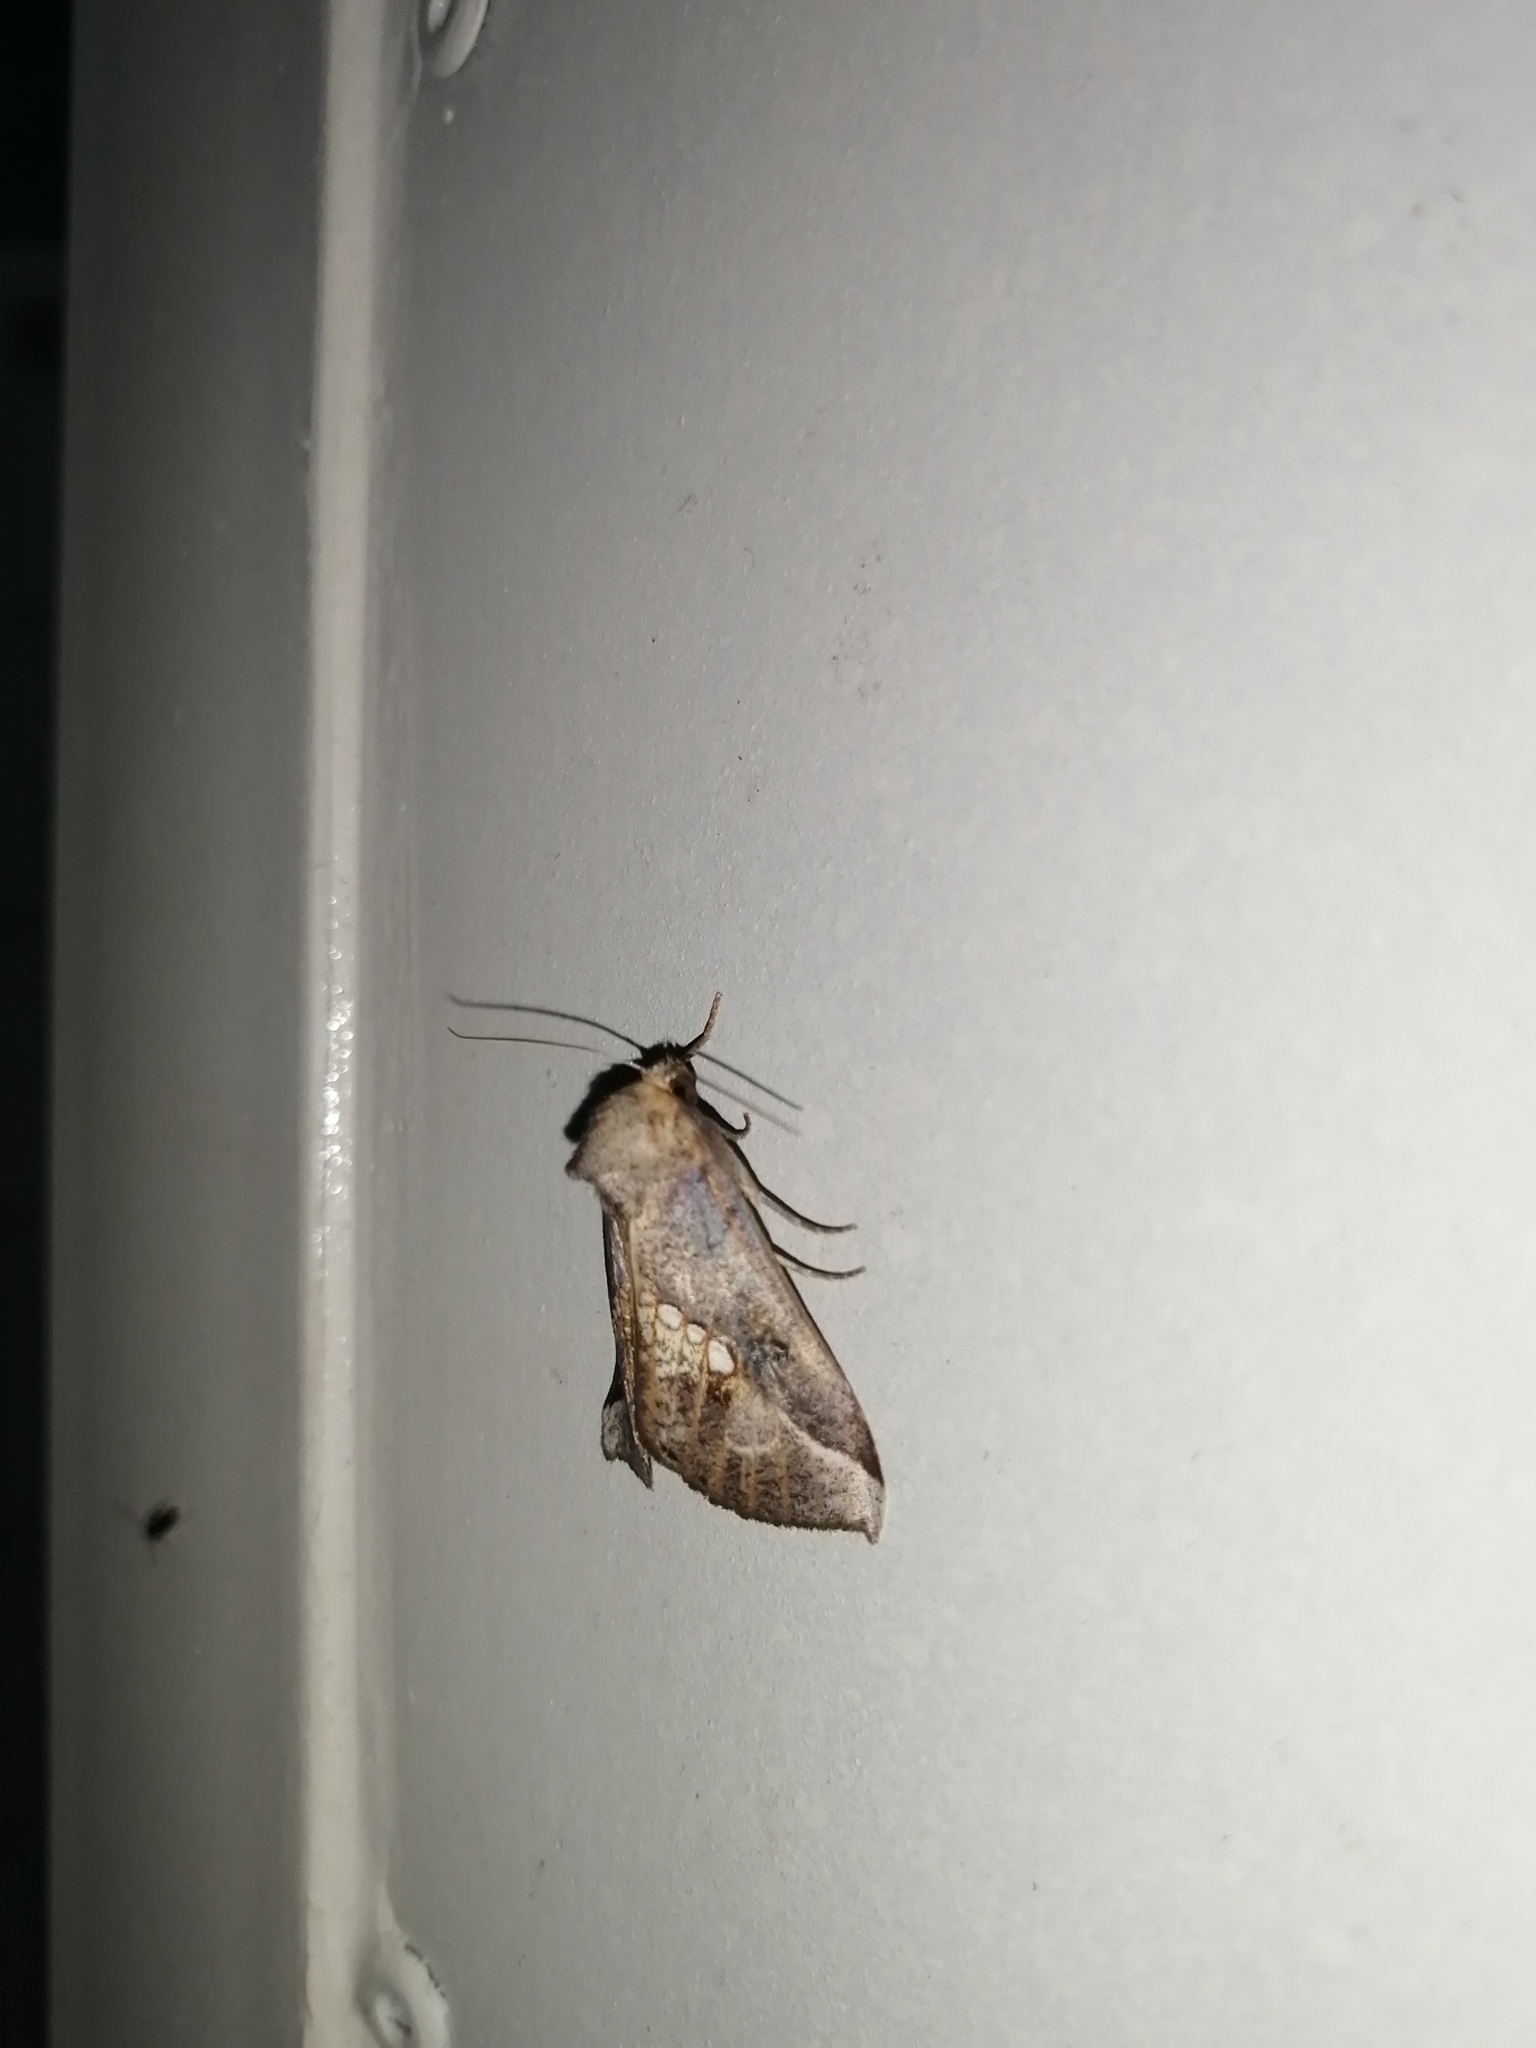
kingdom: Animalia
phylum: Arthropoda
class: Insecta
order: Lepidoptera
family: Erebidae
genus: Hypsoropha
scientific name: Hypsoropha adeona
